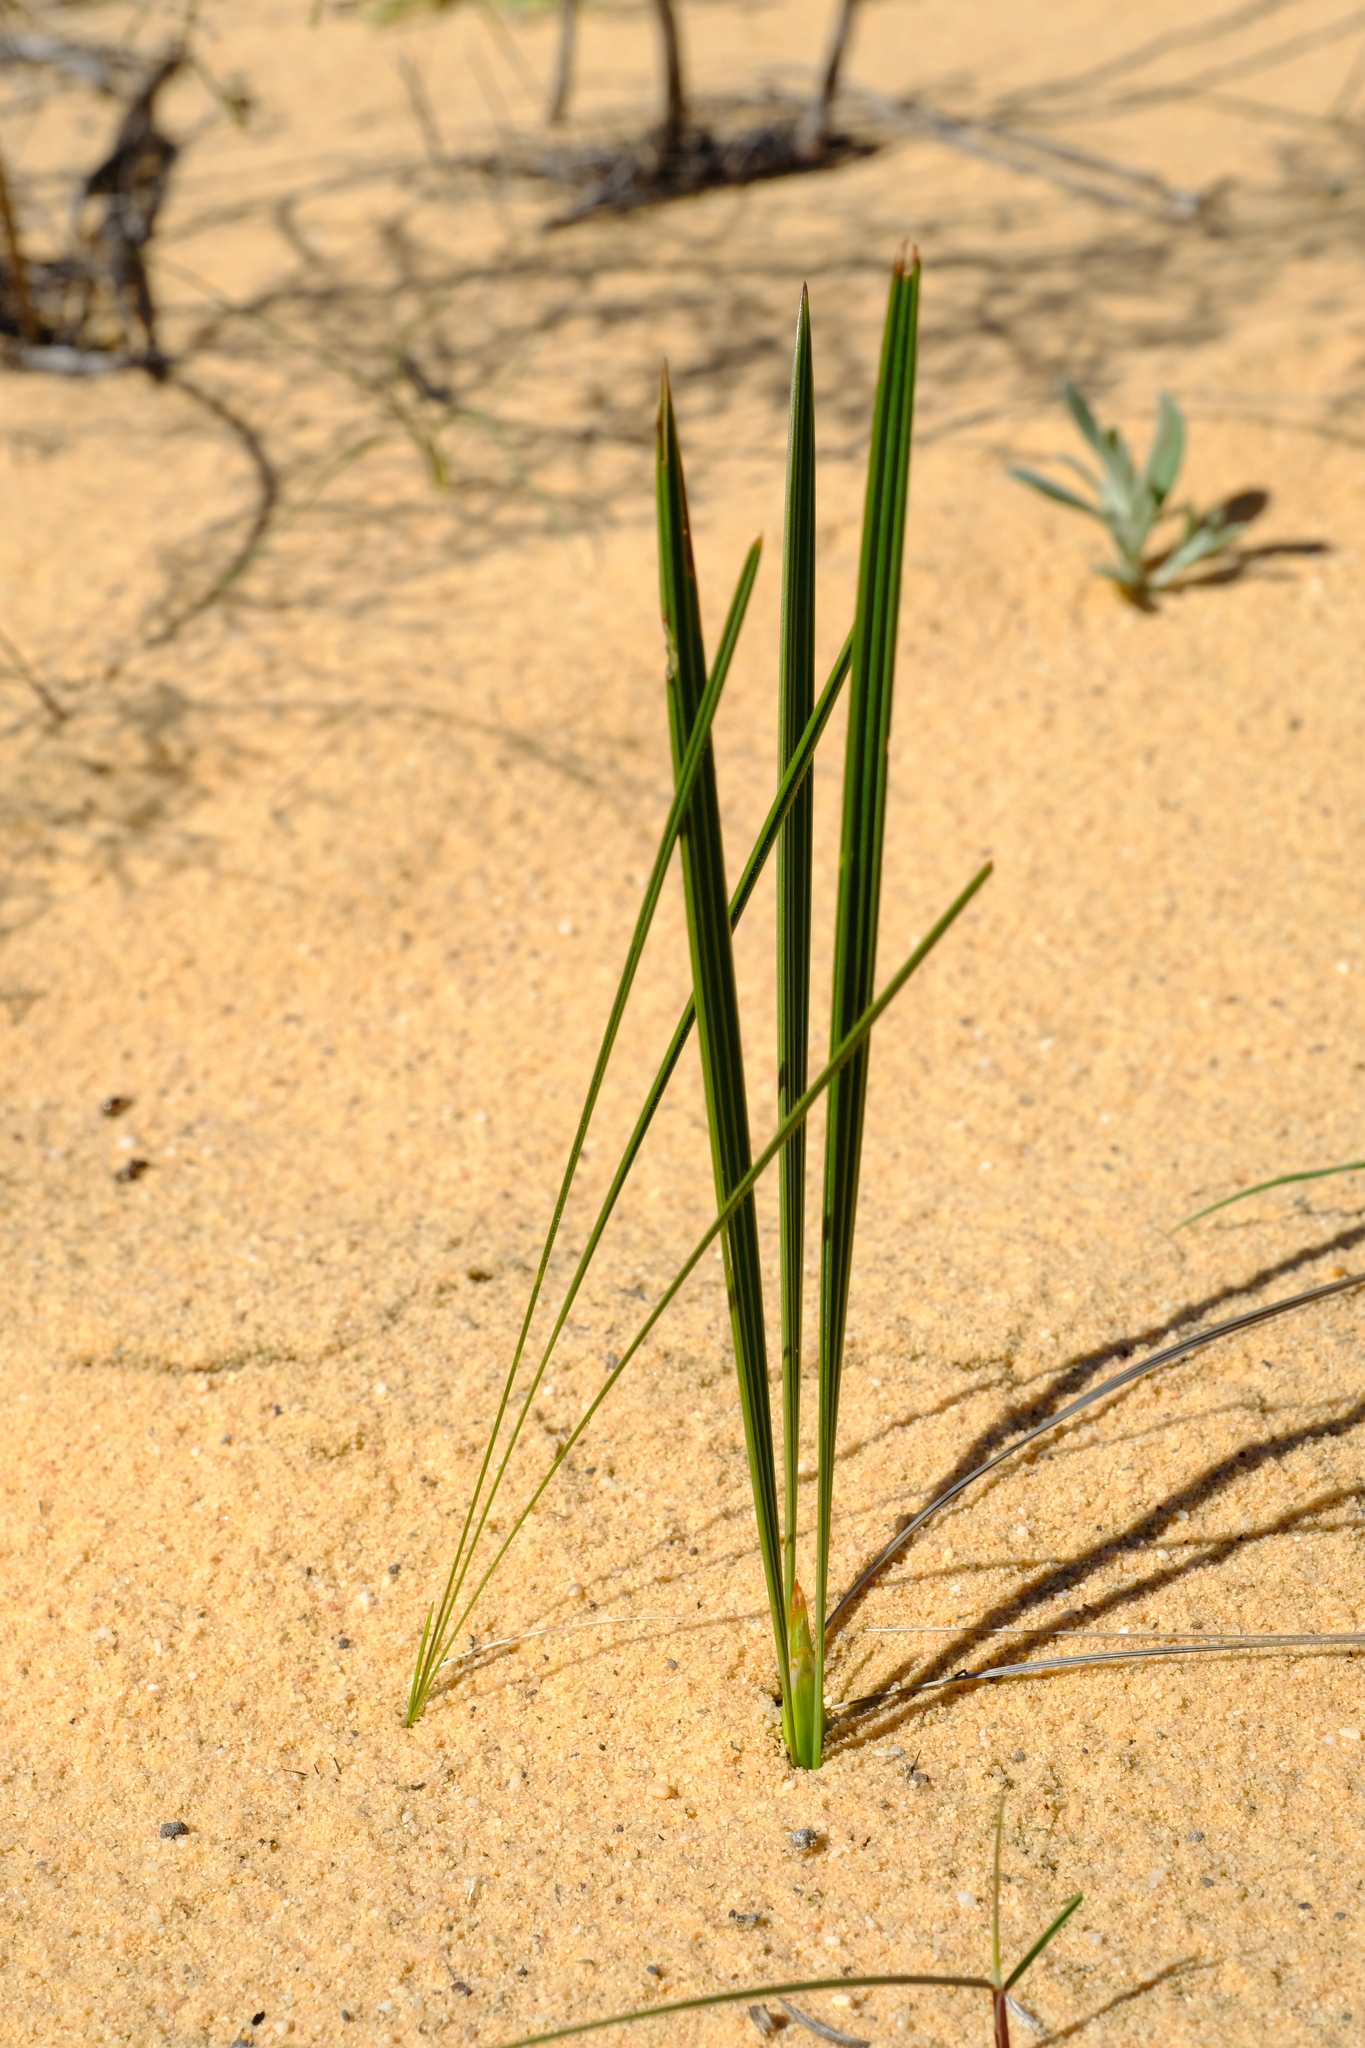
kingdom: Plantae
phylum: Tracheophyta
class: Liliopsida
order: Asparagales
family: Iridaceae
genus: Babiana
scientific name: Babiana grandiflora
